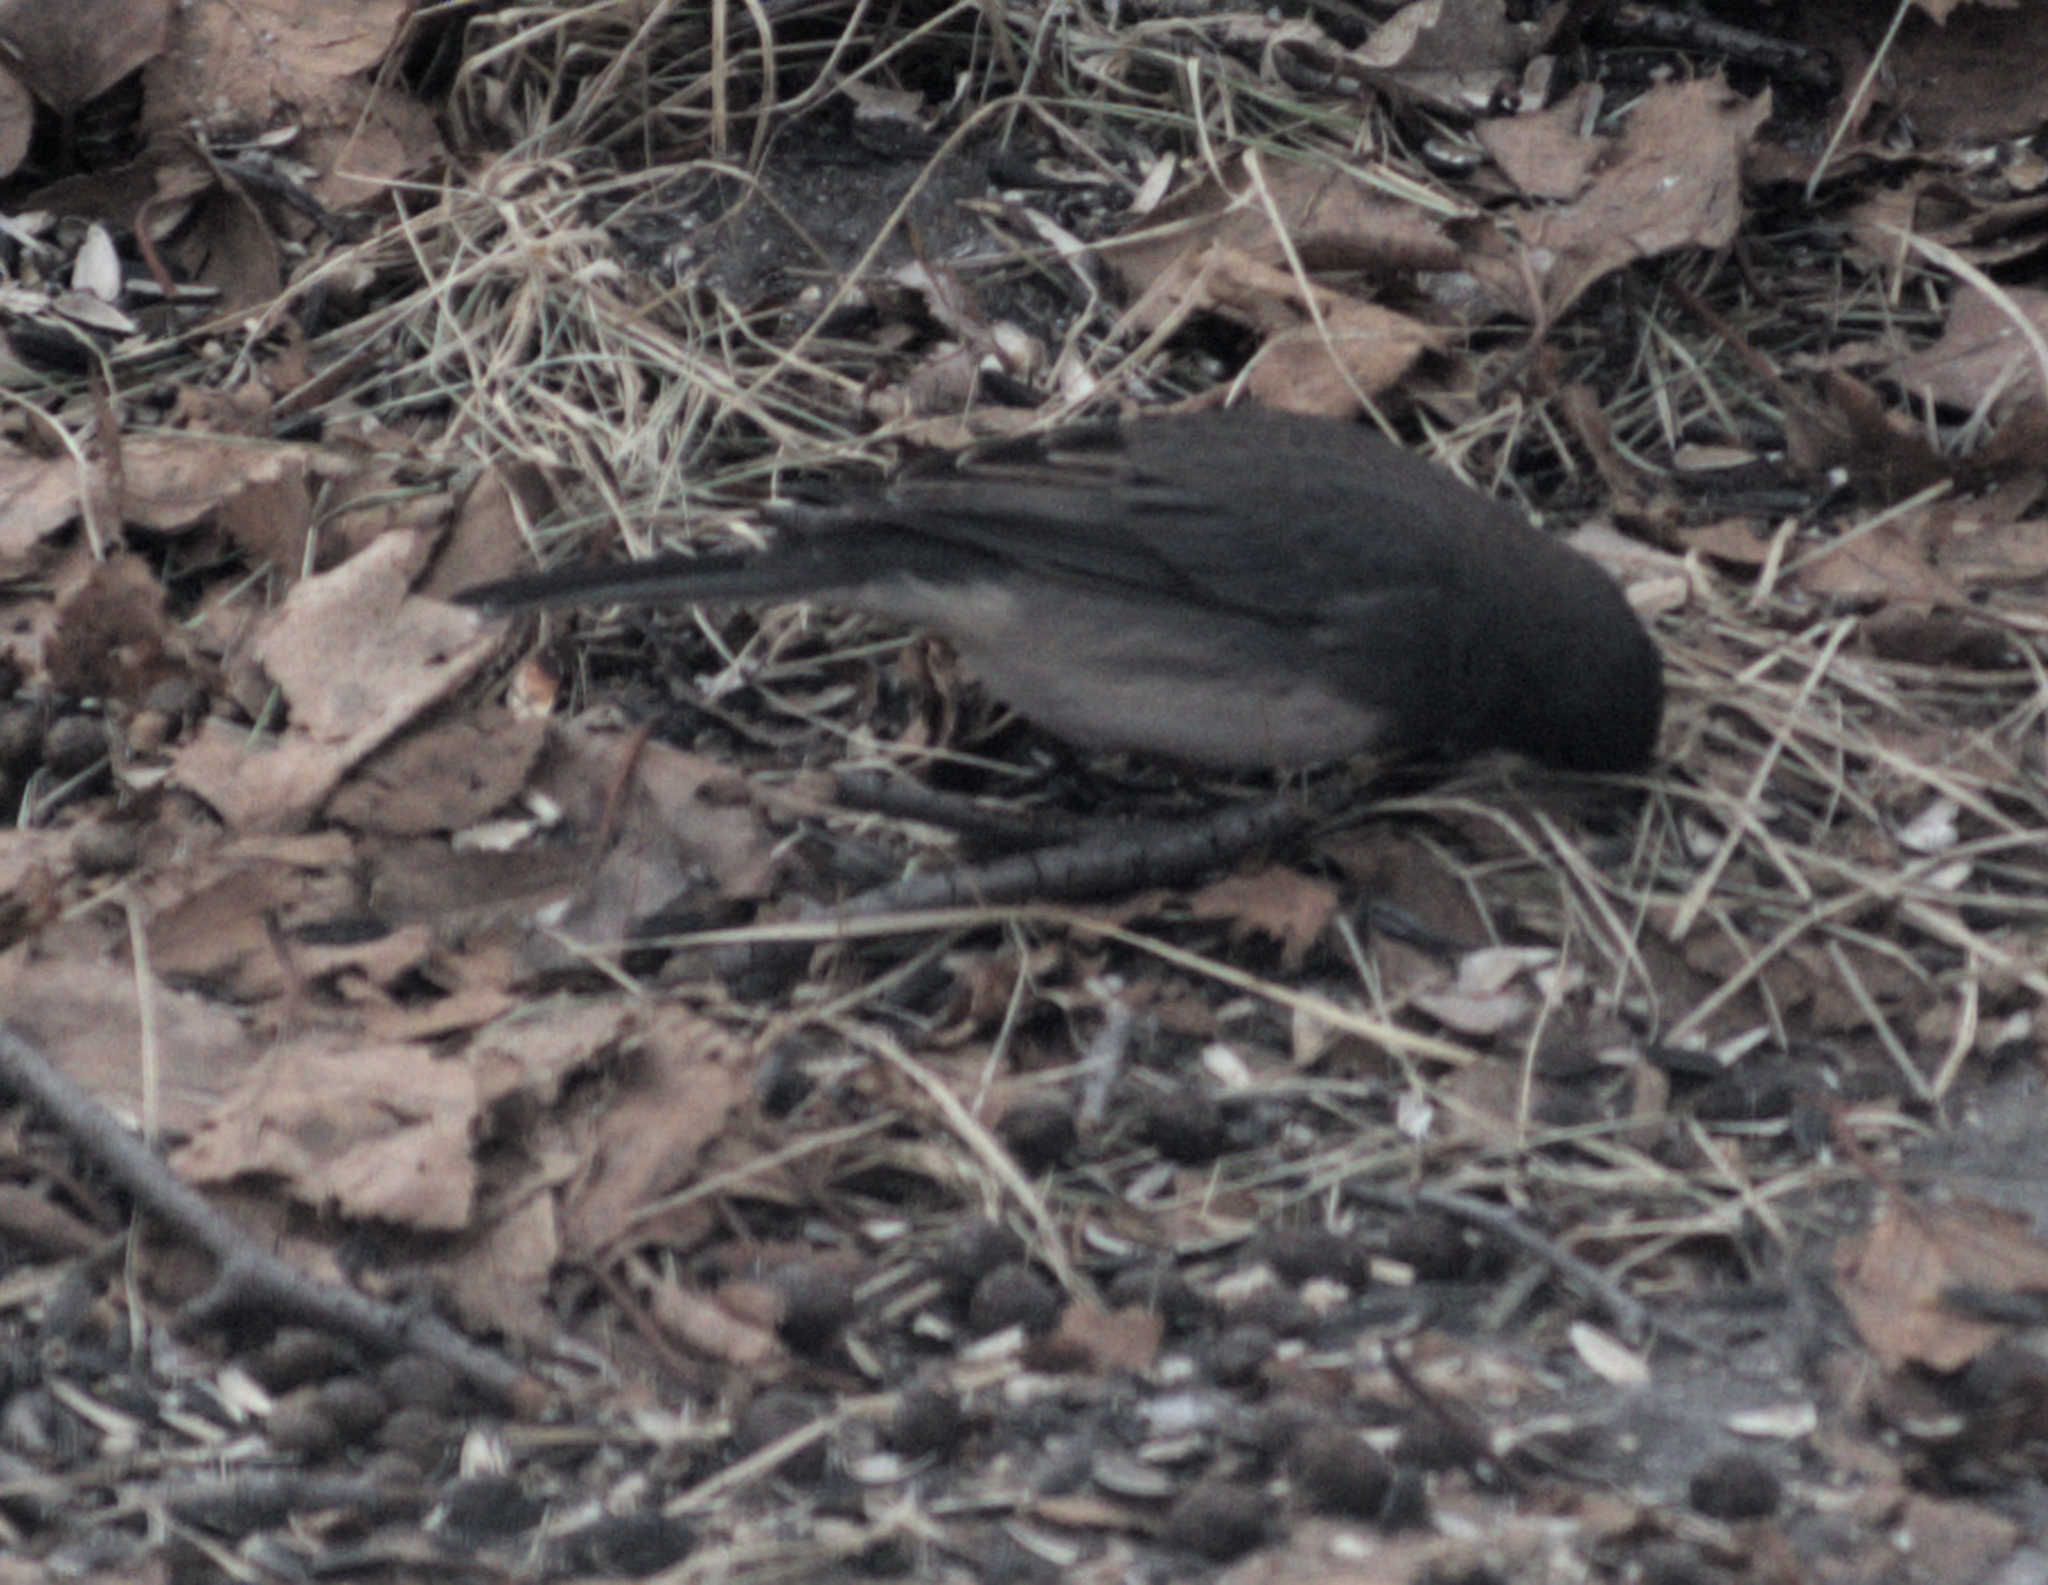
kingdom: Animalia
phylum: Chordata
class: Aves
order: Passeriformes
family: Passerellidae
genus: Junco
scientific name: Junco hyemalis
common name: Dark-eyed junco
